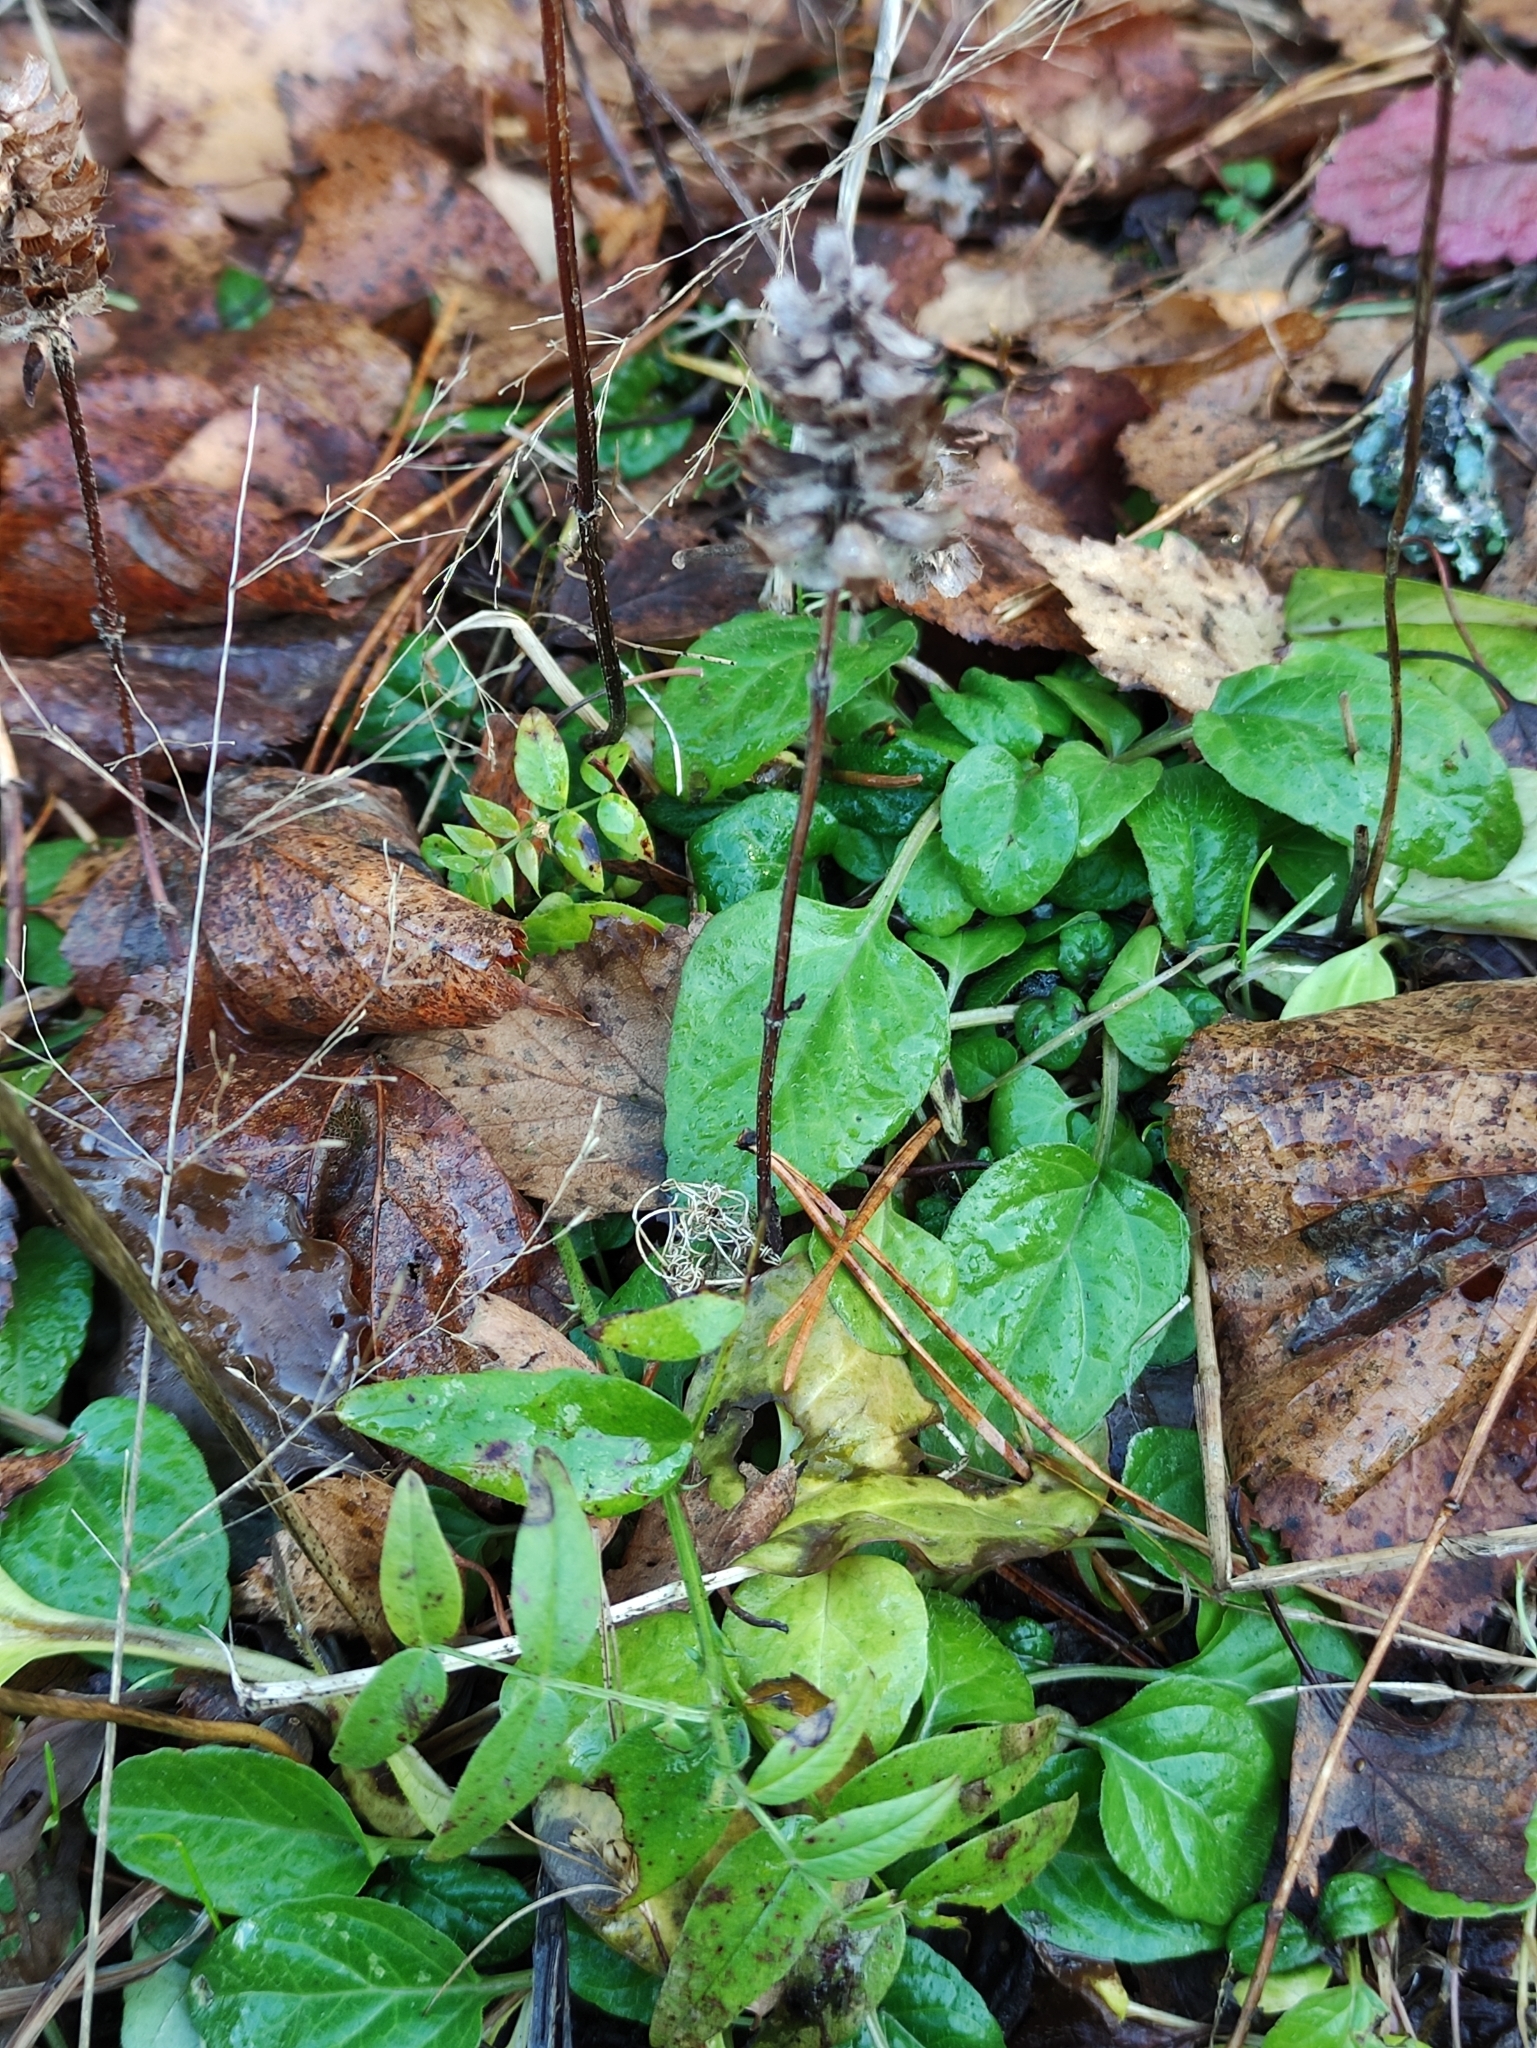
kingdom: Plantae
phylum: Tracheophyta
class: Magnoliopsida
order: Lamiales
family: Lamiaceae
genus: Prunella
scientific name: Prunella vulgaris
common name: Heal-all
